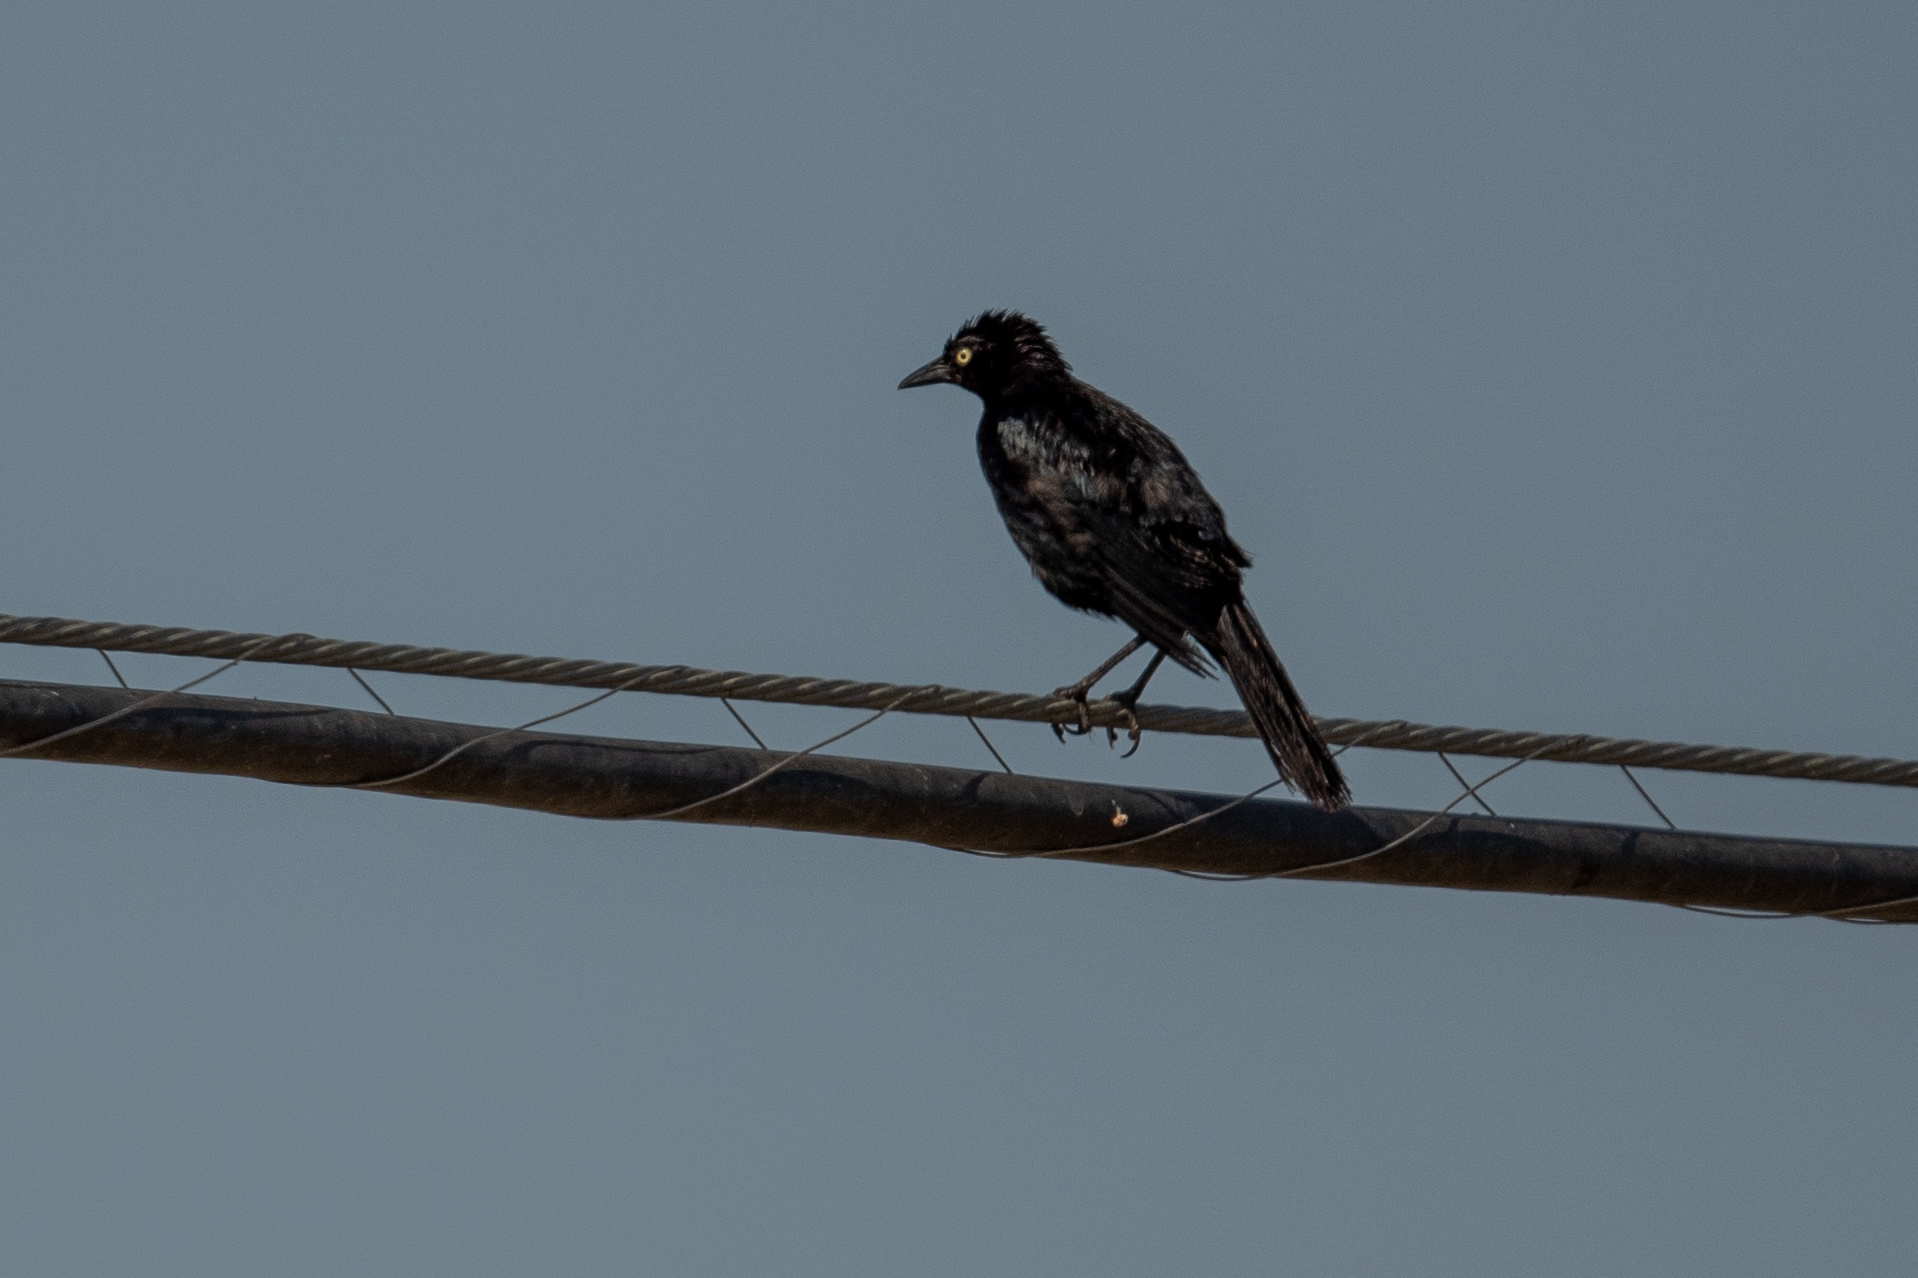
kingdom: Animalia
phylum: Chordata
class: Aves
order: Passeriformes
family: Icteridae
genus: Euphagus
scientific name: Euphagus cyanocephalus
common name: Brewer's blackbird
